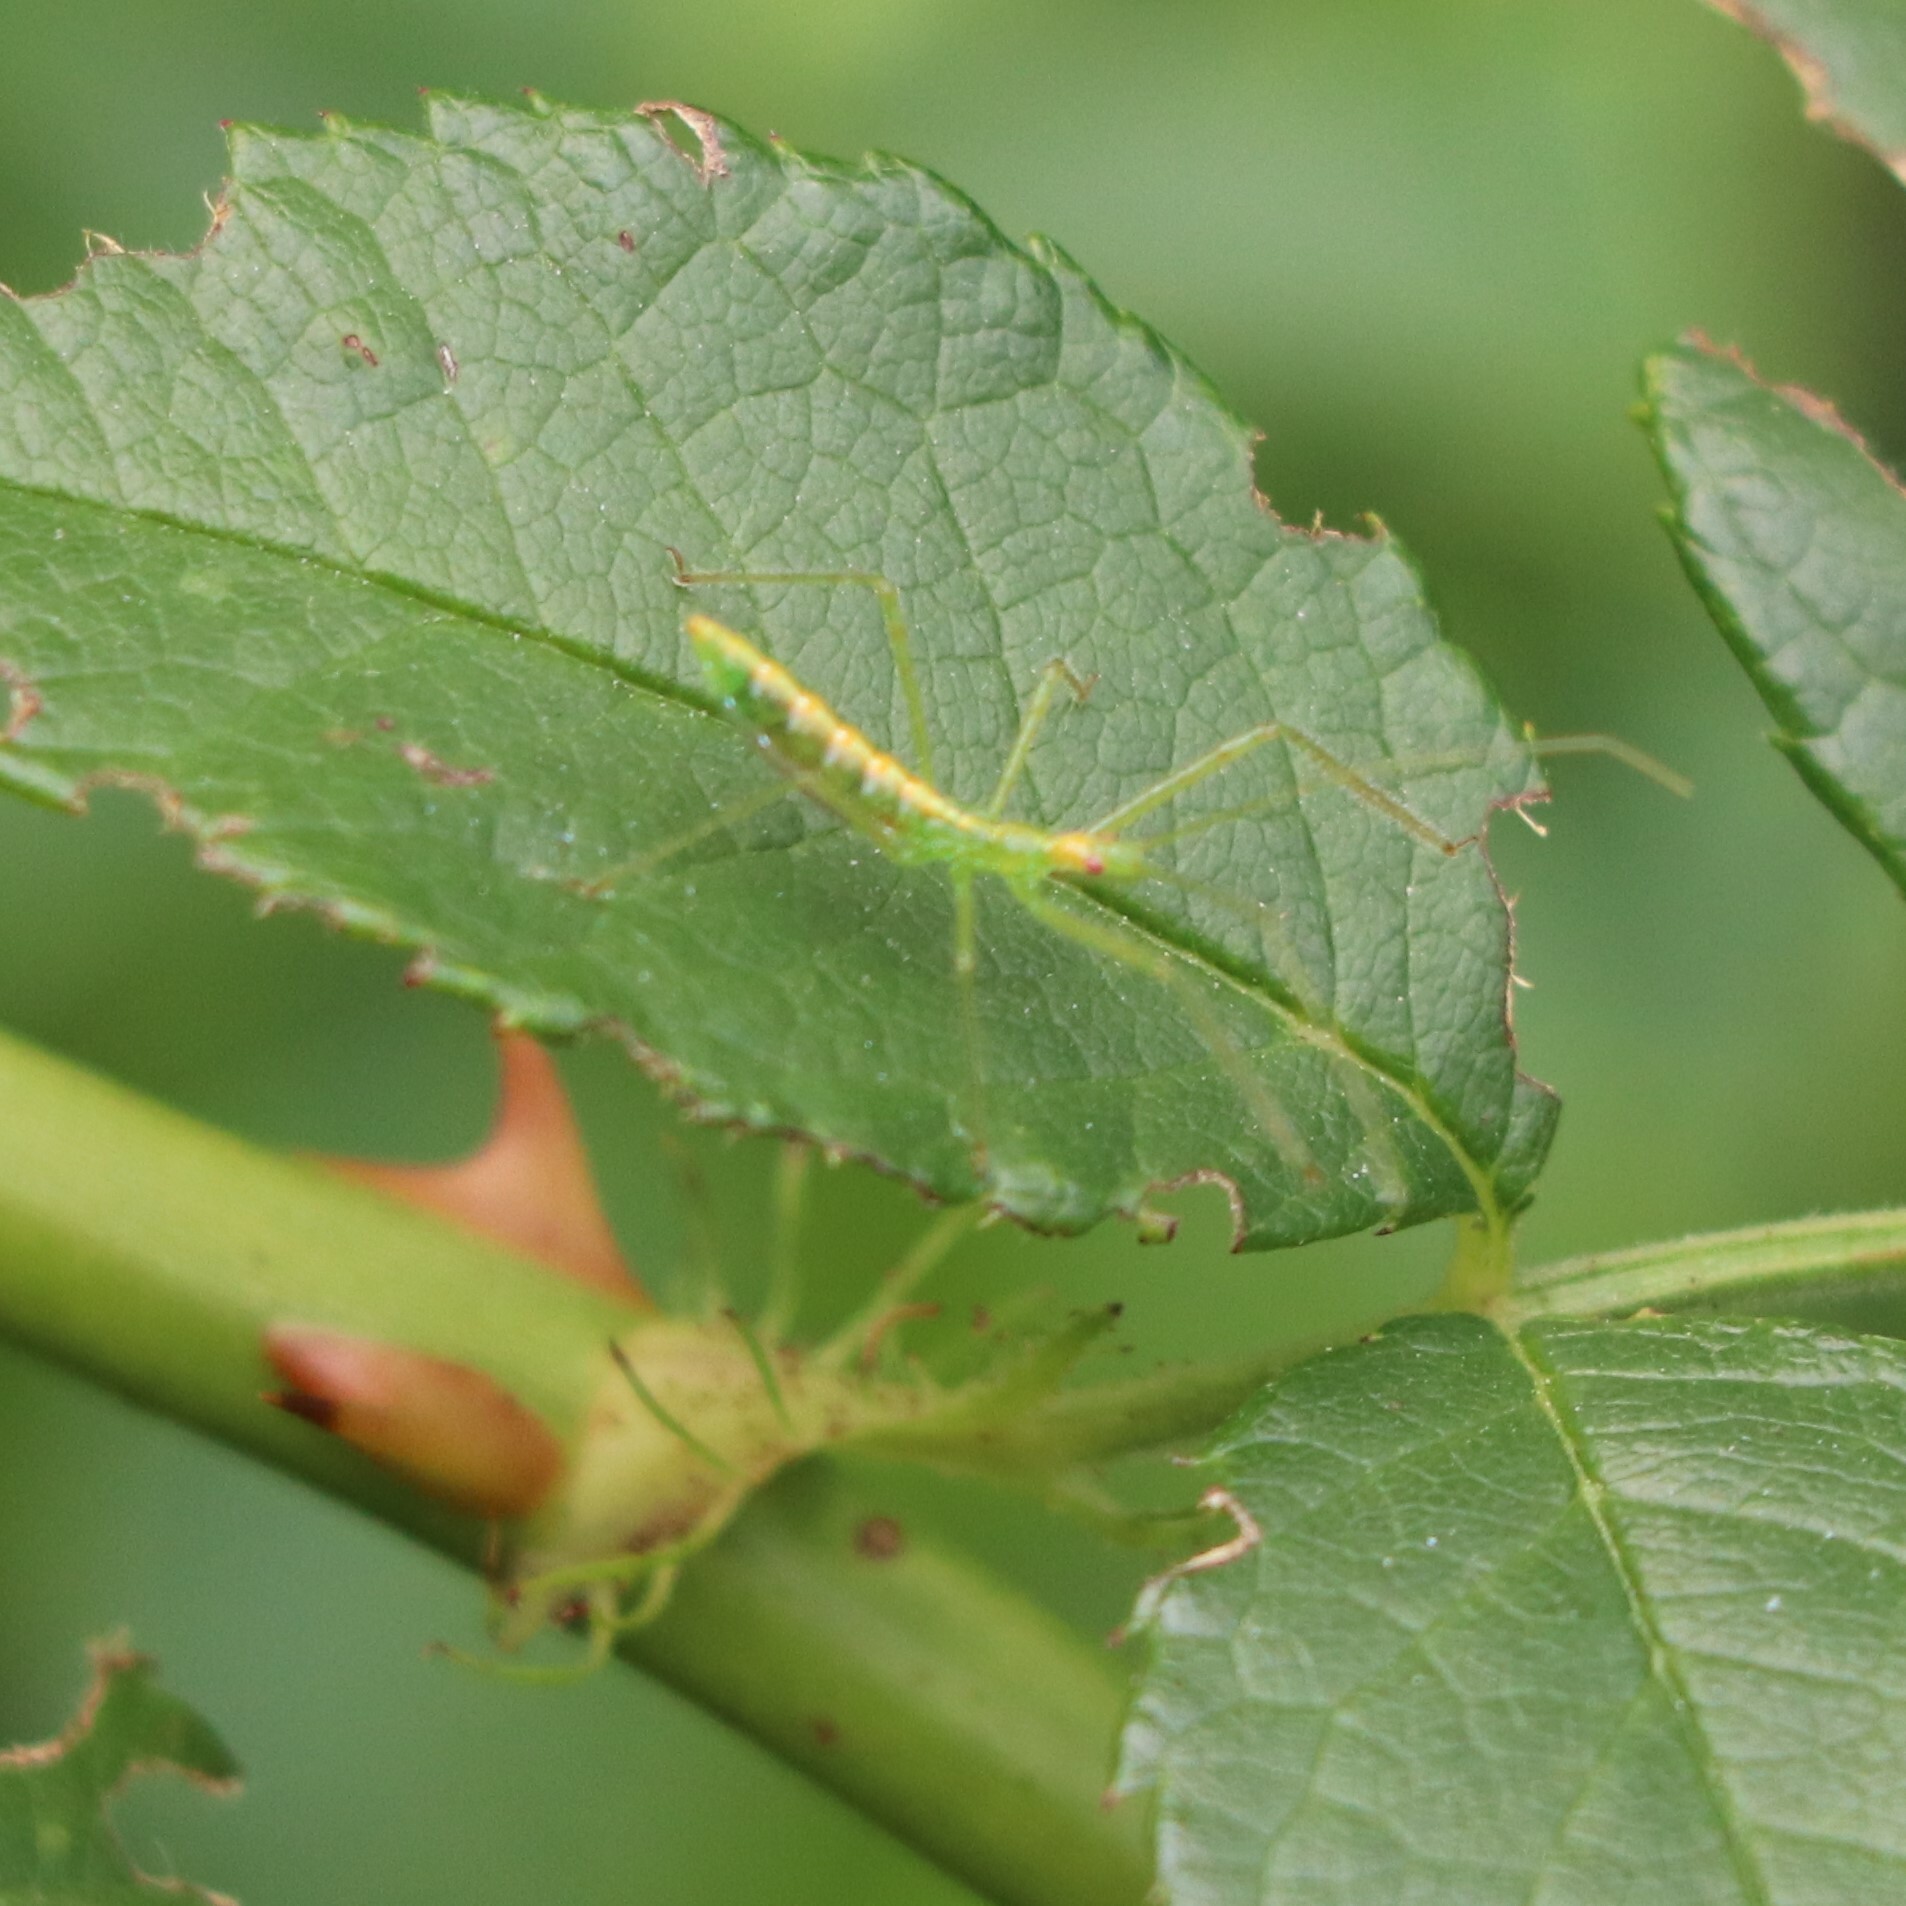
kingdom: Animalia
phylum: Arthropoda
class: Insecta
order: Hemiptera
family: Reduviidae
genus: Zelus
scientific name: Zelus luridus
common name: Pale green assassin bug
